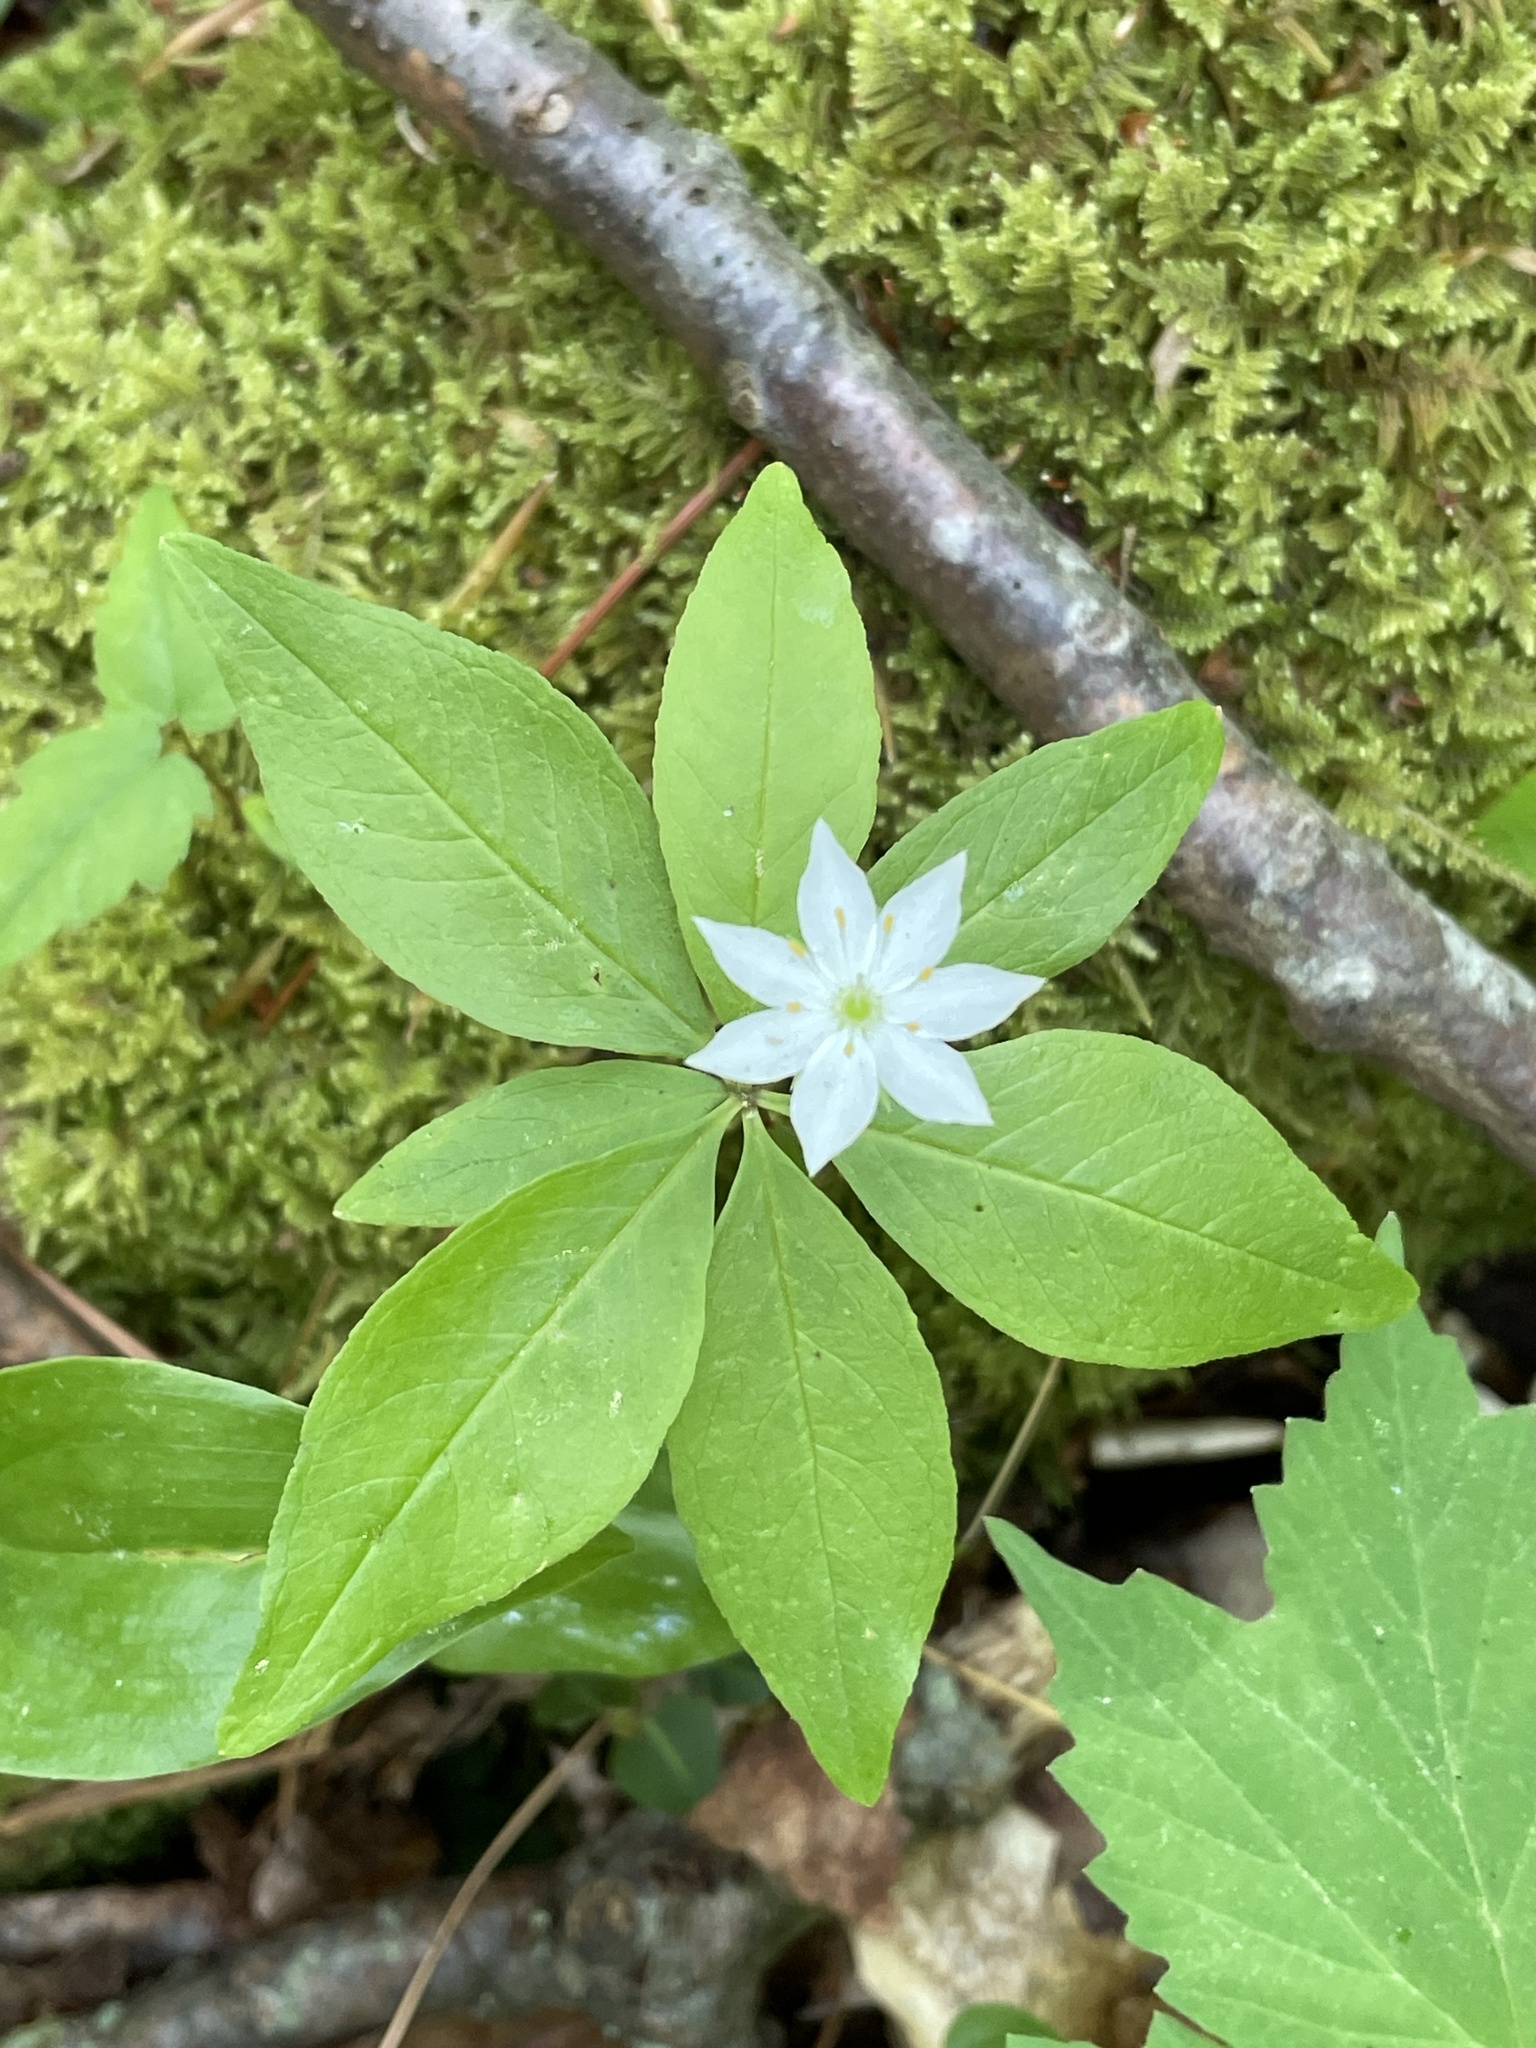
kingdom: Plantae
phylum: Tracheophyta
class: Magnoliopsida
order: Ericales
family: Primulaceae
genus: Lysimachia
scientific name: Lysimachia borealis
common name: American starflower
